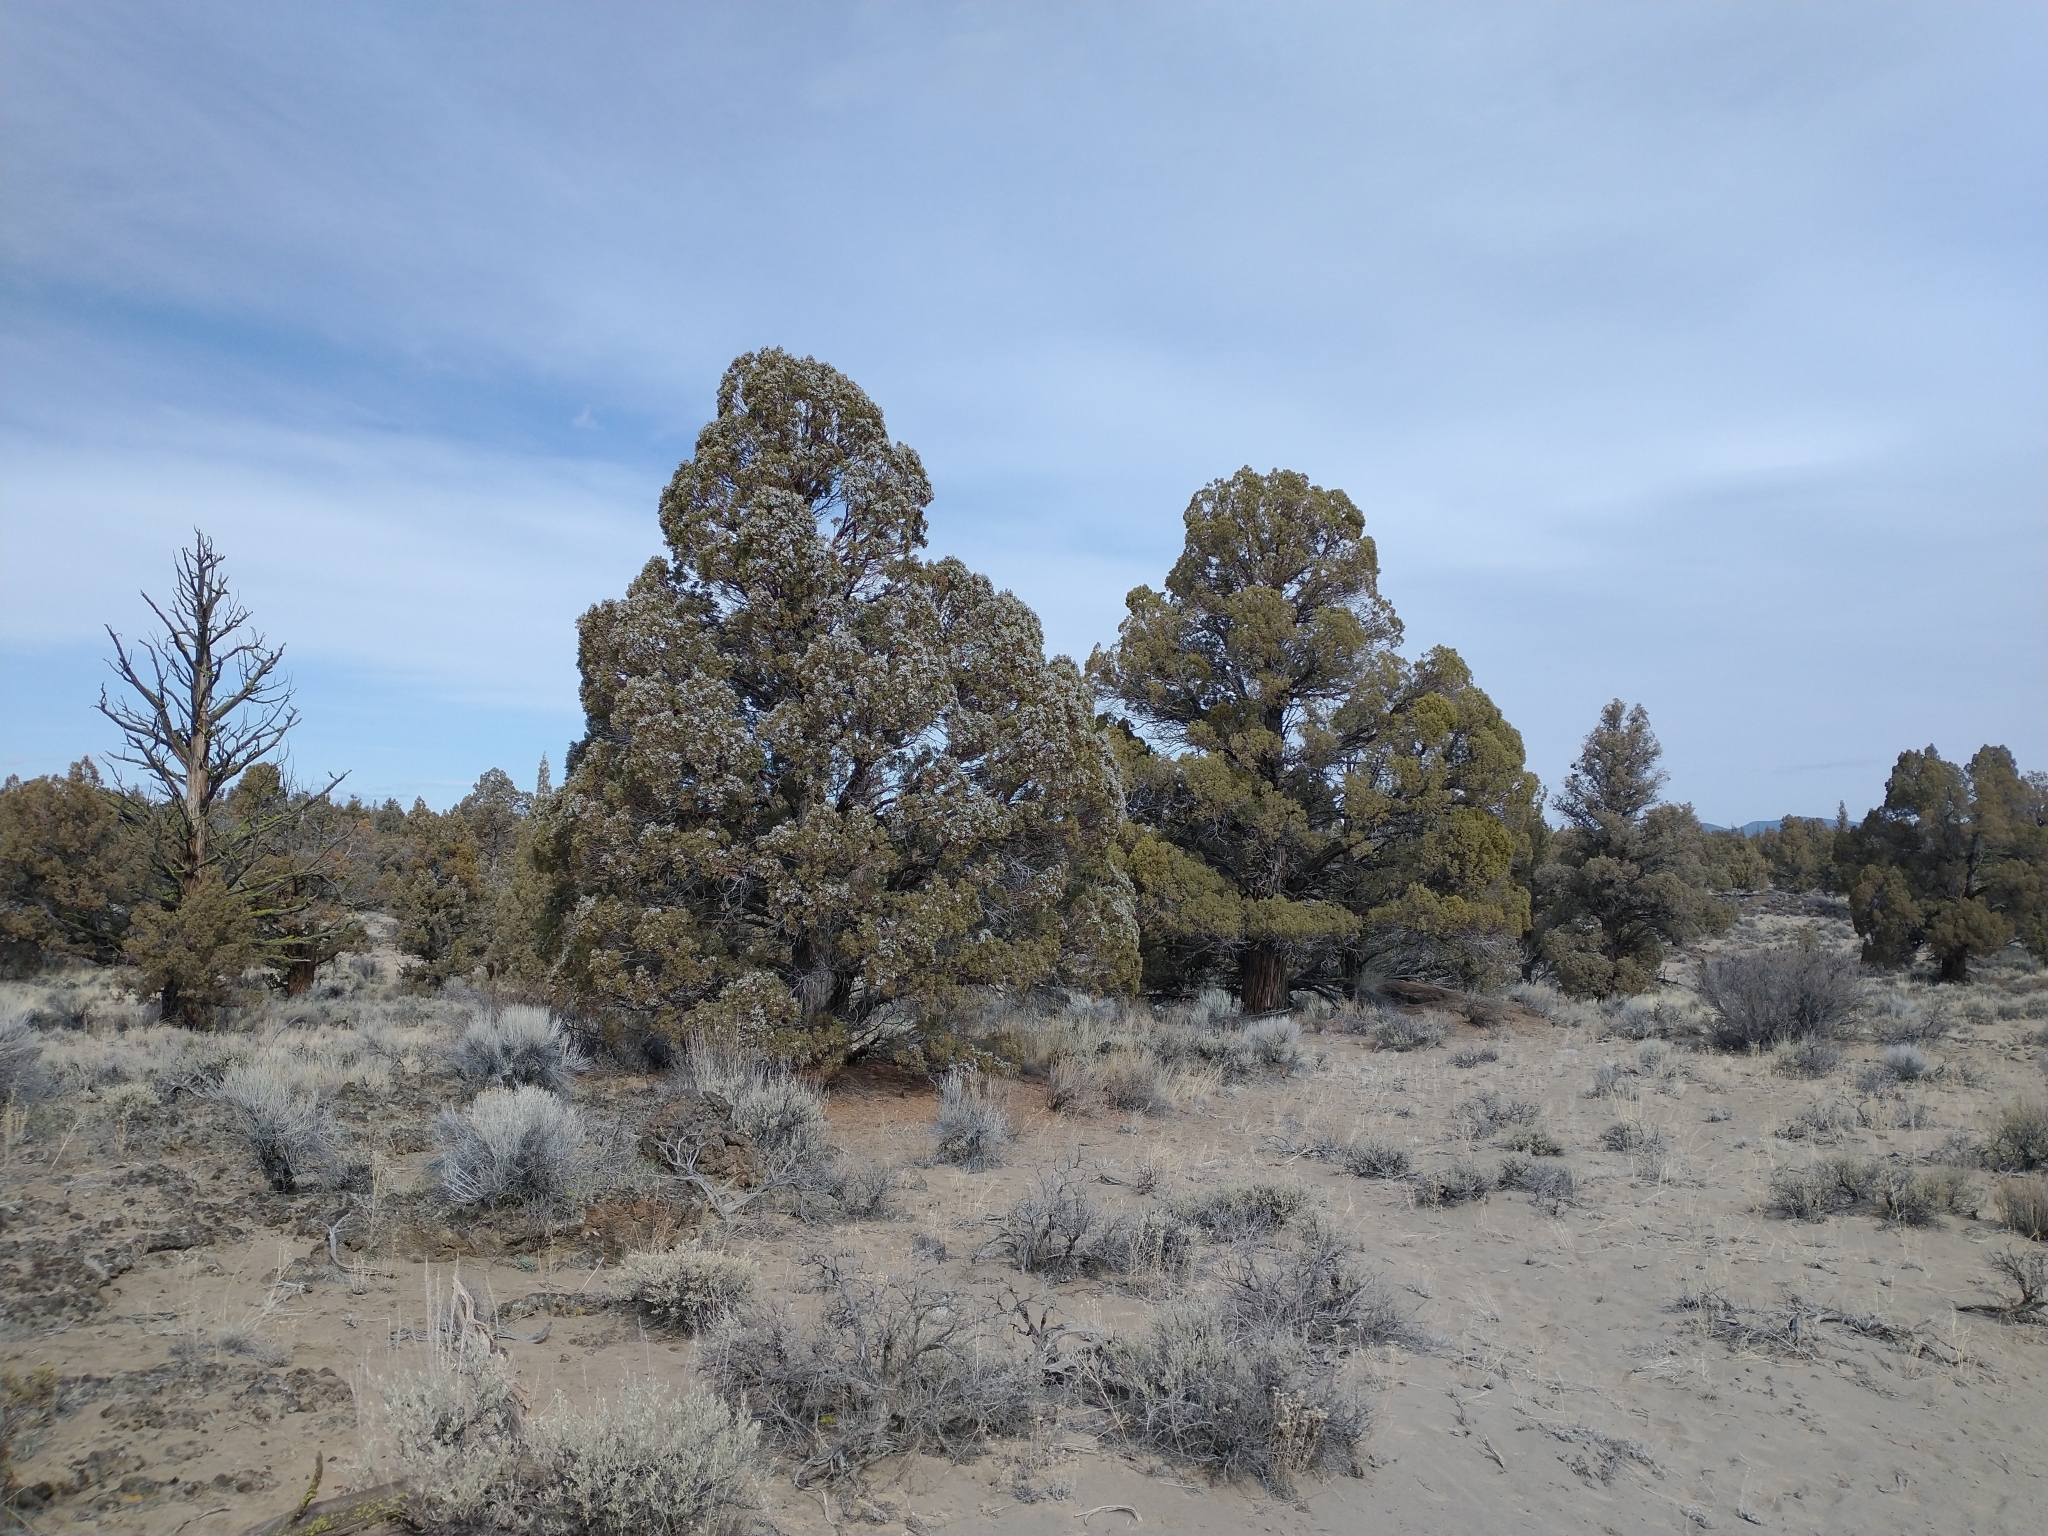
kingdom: Plantae
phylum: Tracheophyta
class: Pinopsida
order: Pinales
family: Cupressaceae
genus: Juniperus
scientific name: Juniperus occidentalis
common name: Western juniper
